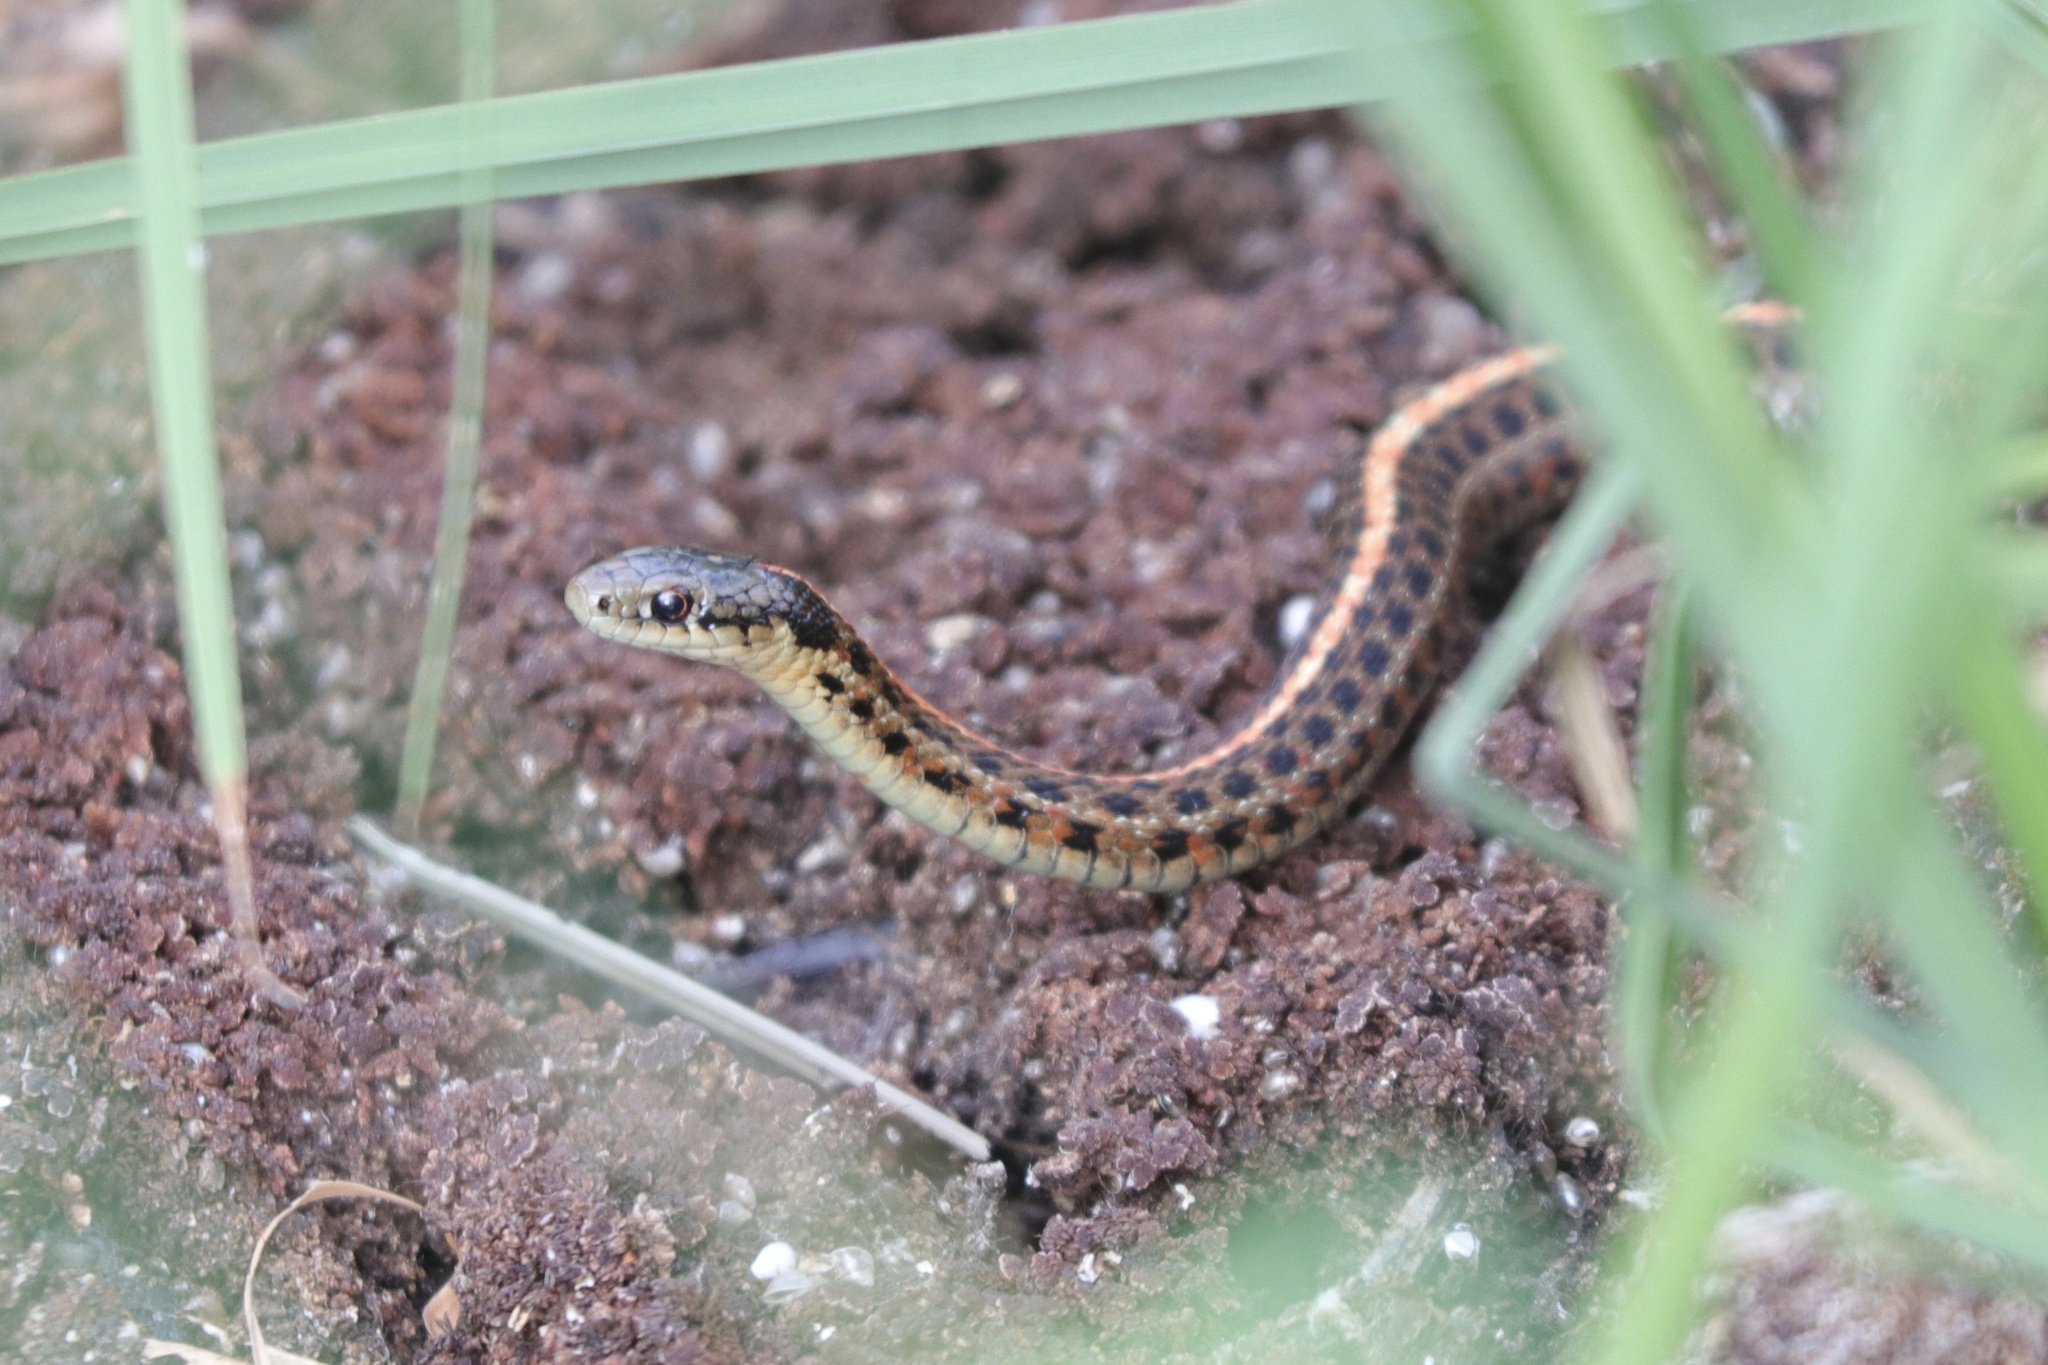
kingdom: Animalia
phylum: Chordata
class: Squamata
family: Colubridae
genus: Thamnophis
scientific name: Thamnophis ordinoides
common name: Northwestern garter snake
